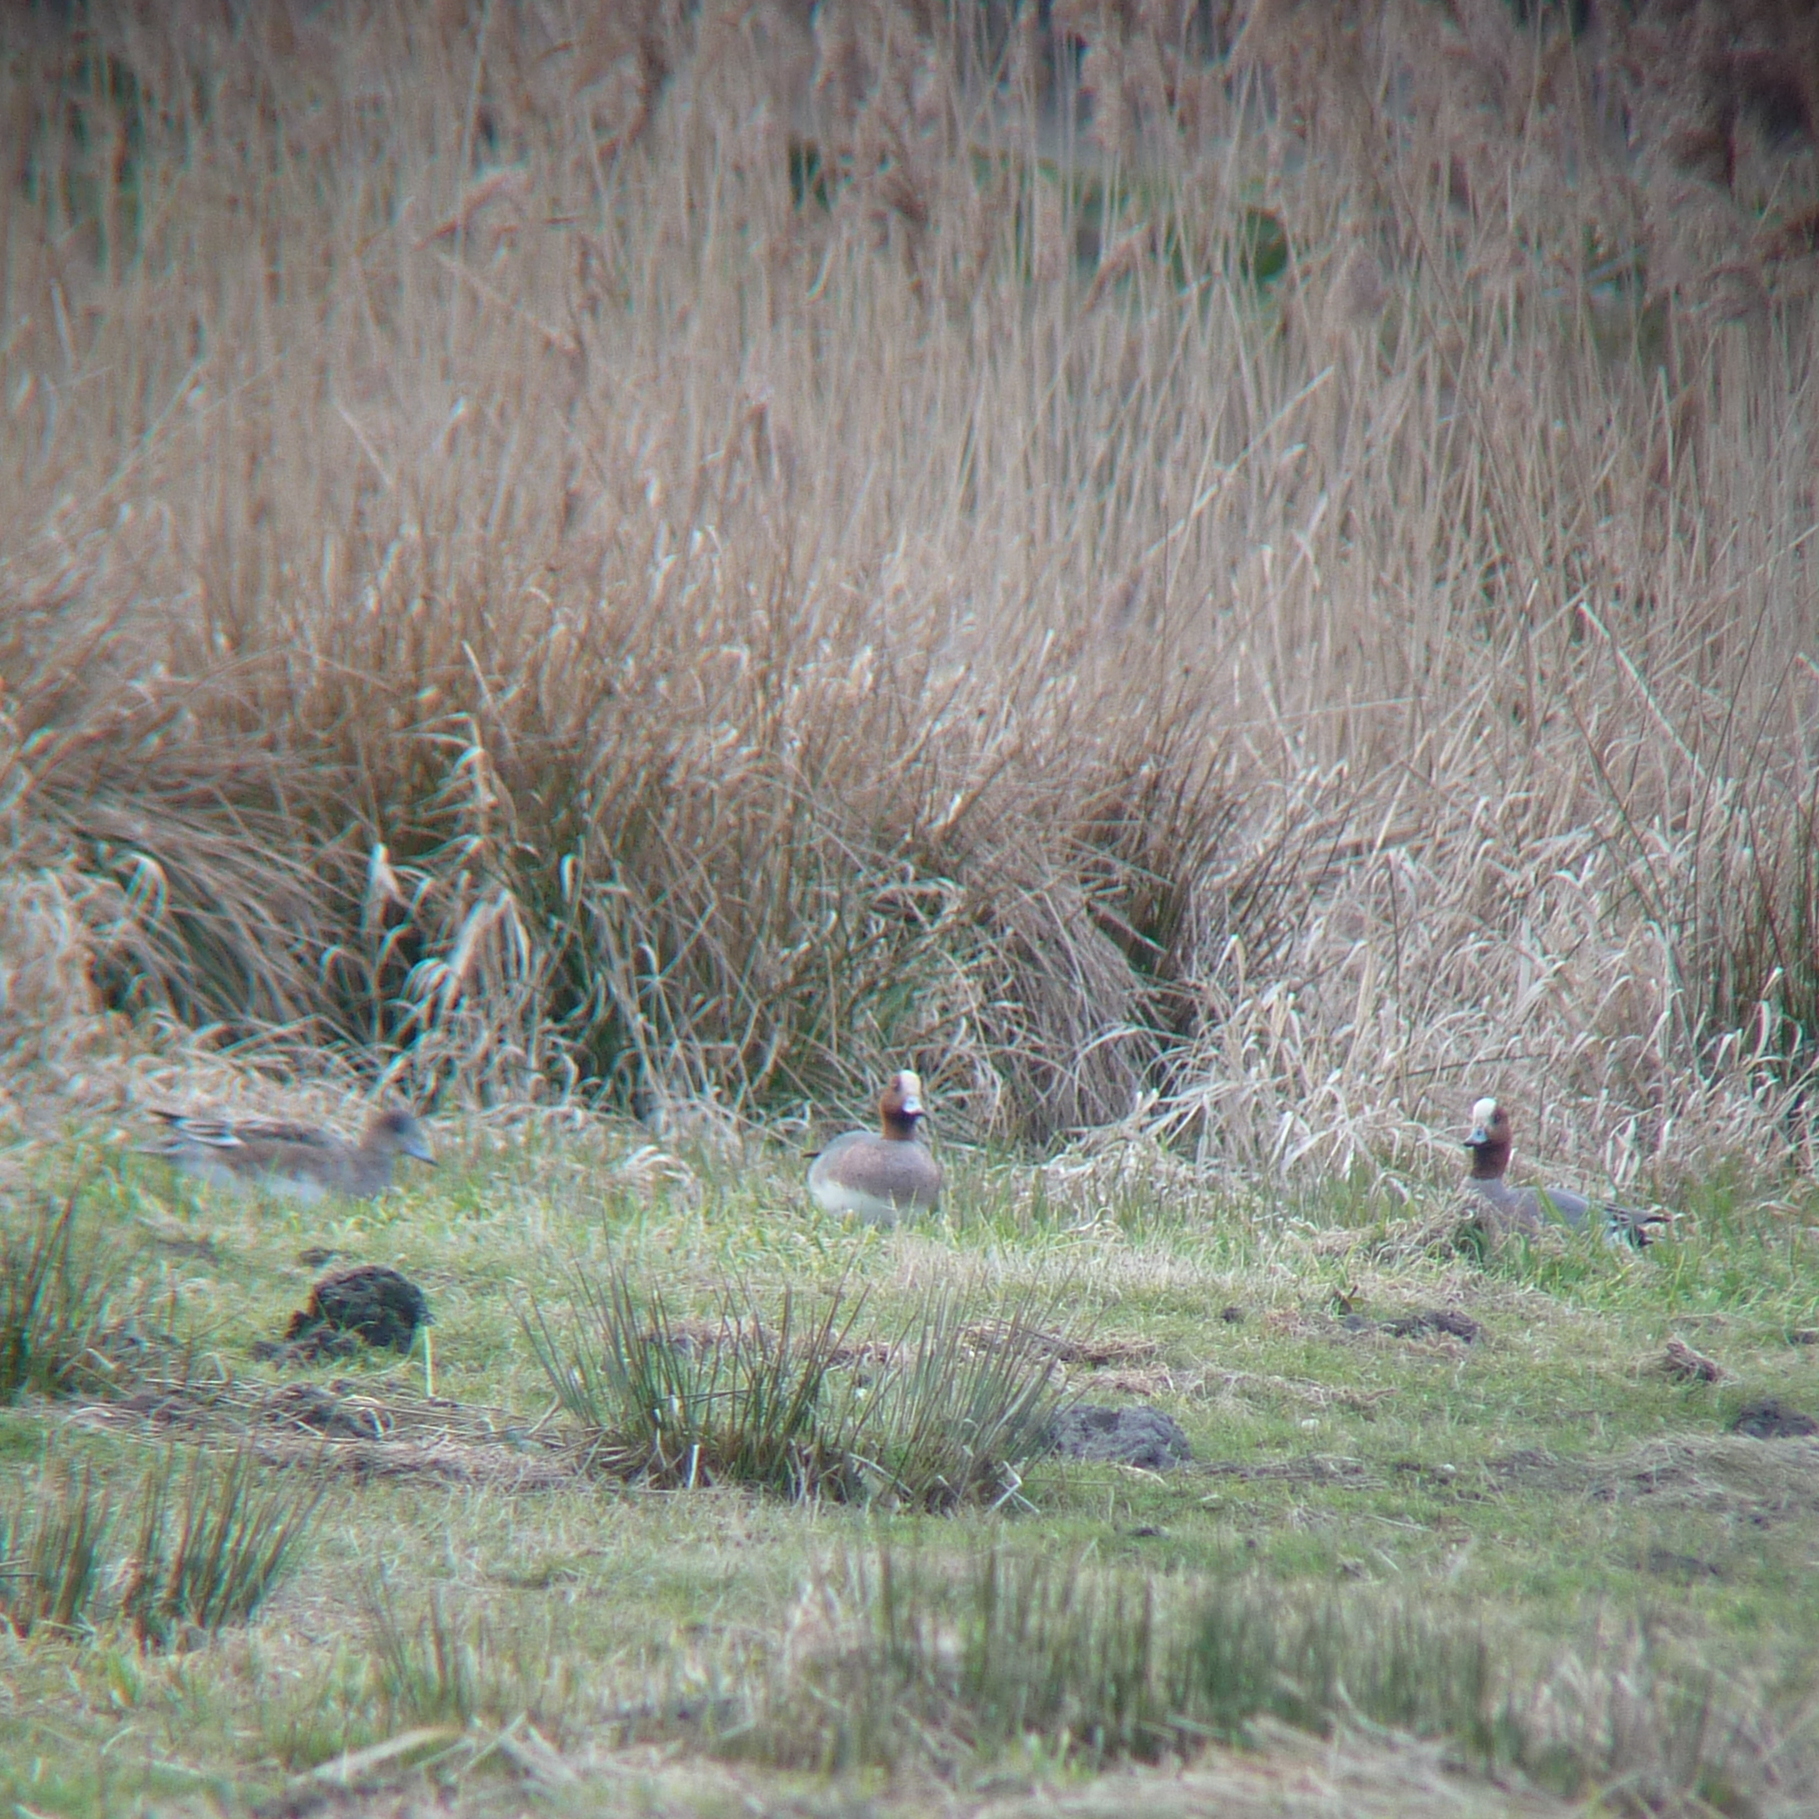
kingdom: Animalia
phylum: Chordata
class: Aves
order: Anseriformes
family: Anatidae
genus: Mareca
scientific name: Mareca penelope
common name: Eurasian wigeon
